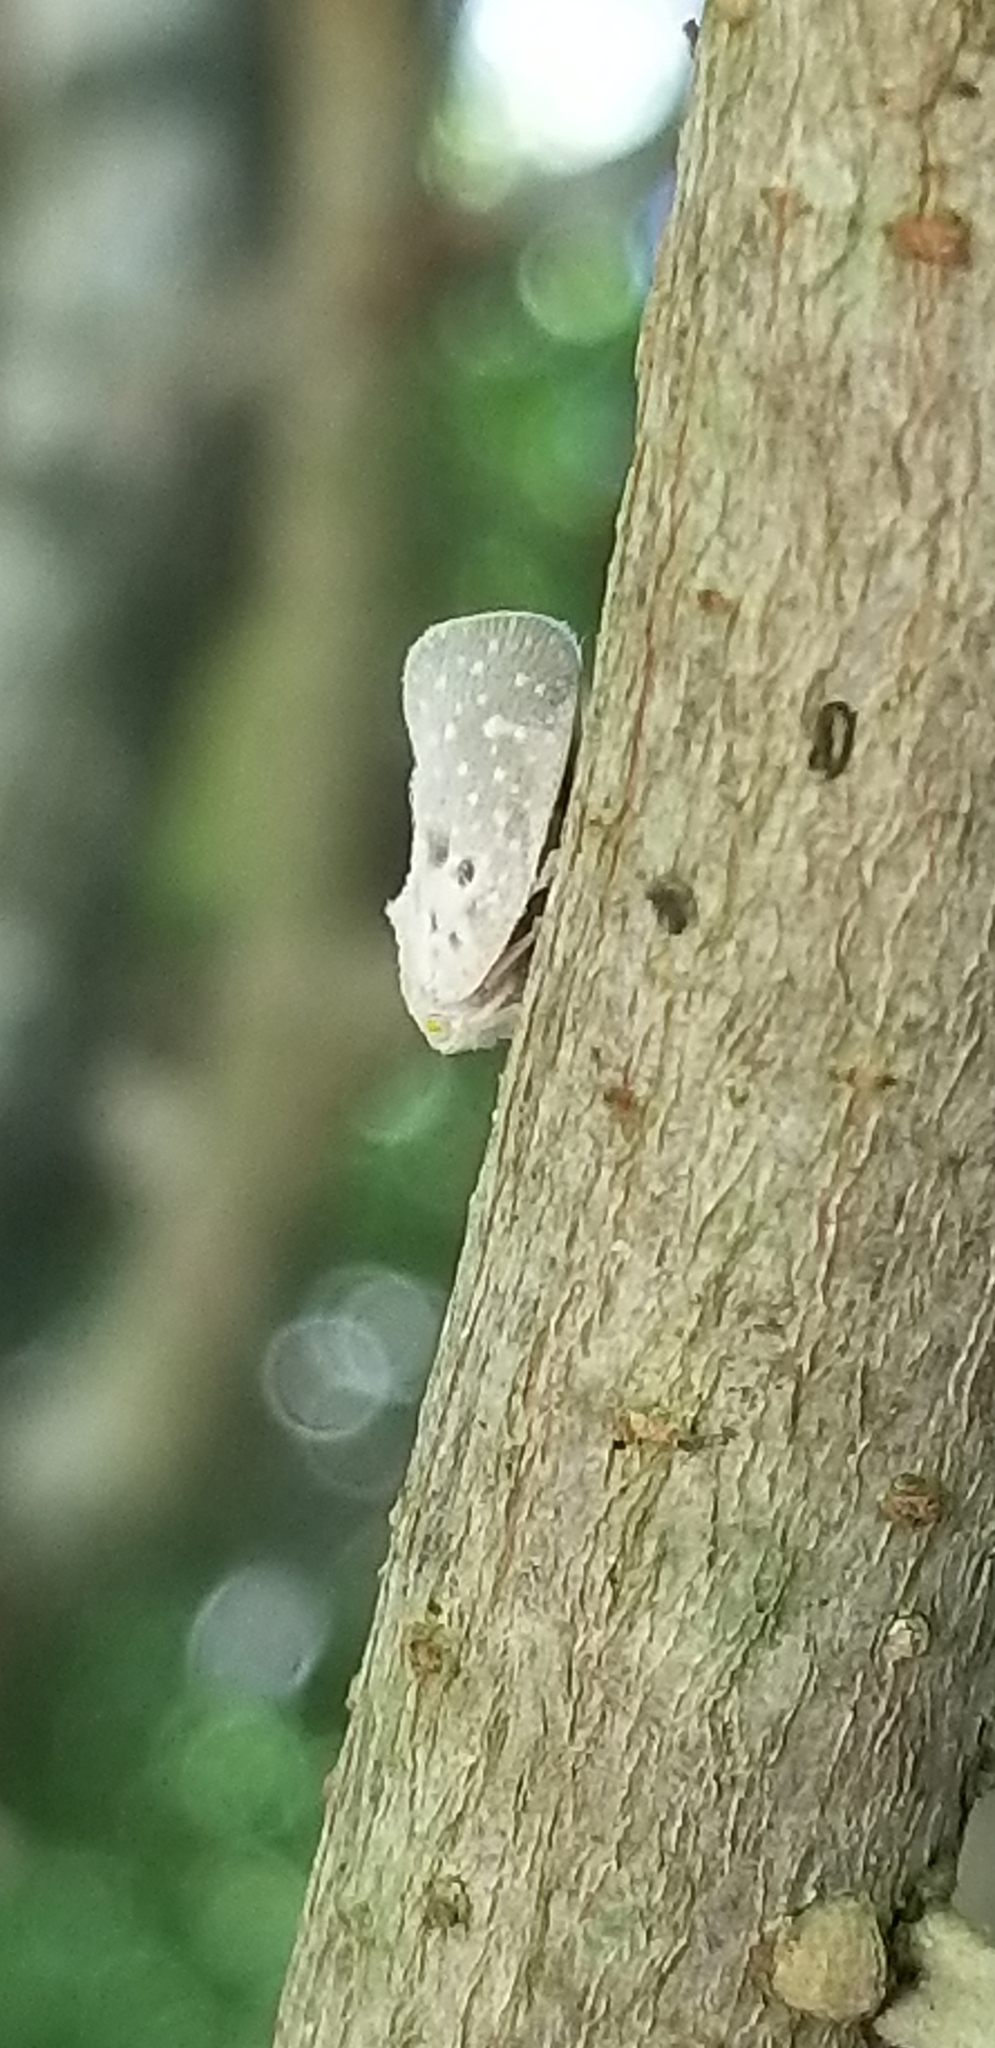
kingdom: Animalia
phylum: Arthropoda
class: Insecta
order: Hemiptera
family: Flatidae
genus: Metcalfa
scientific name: Metcalfa pruinosa
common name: Citrus flatid planthopper
